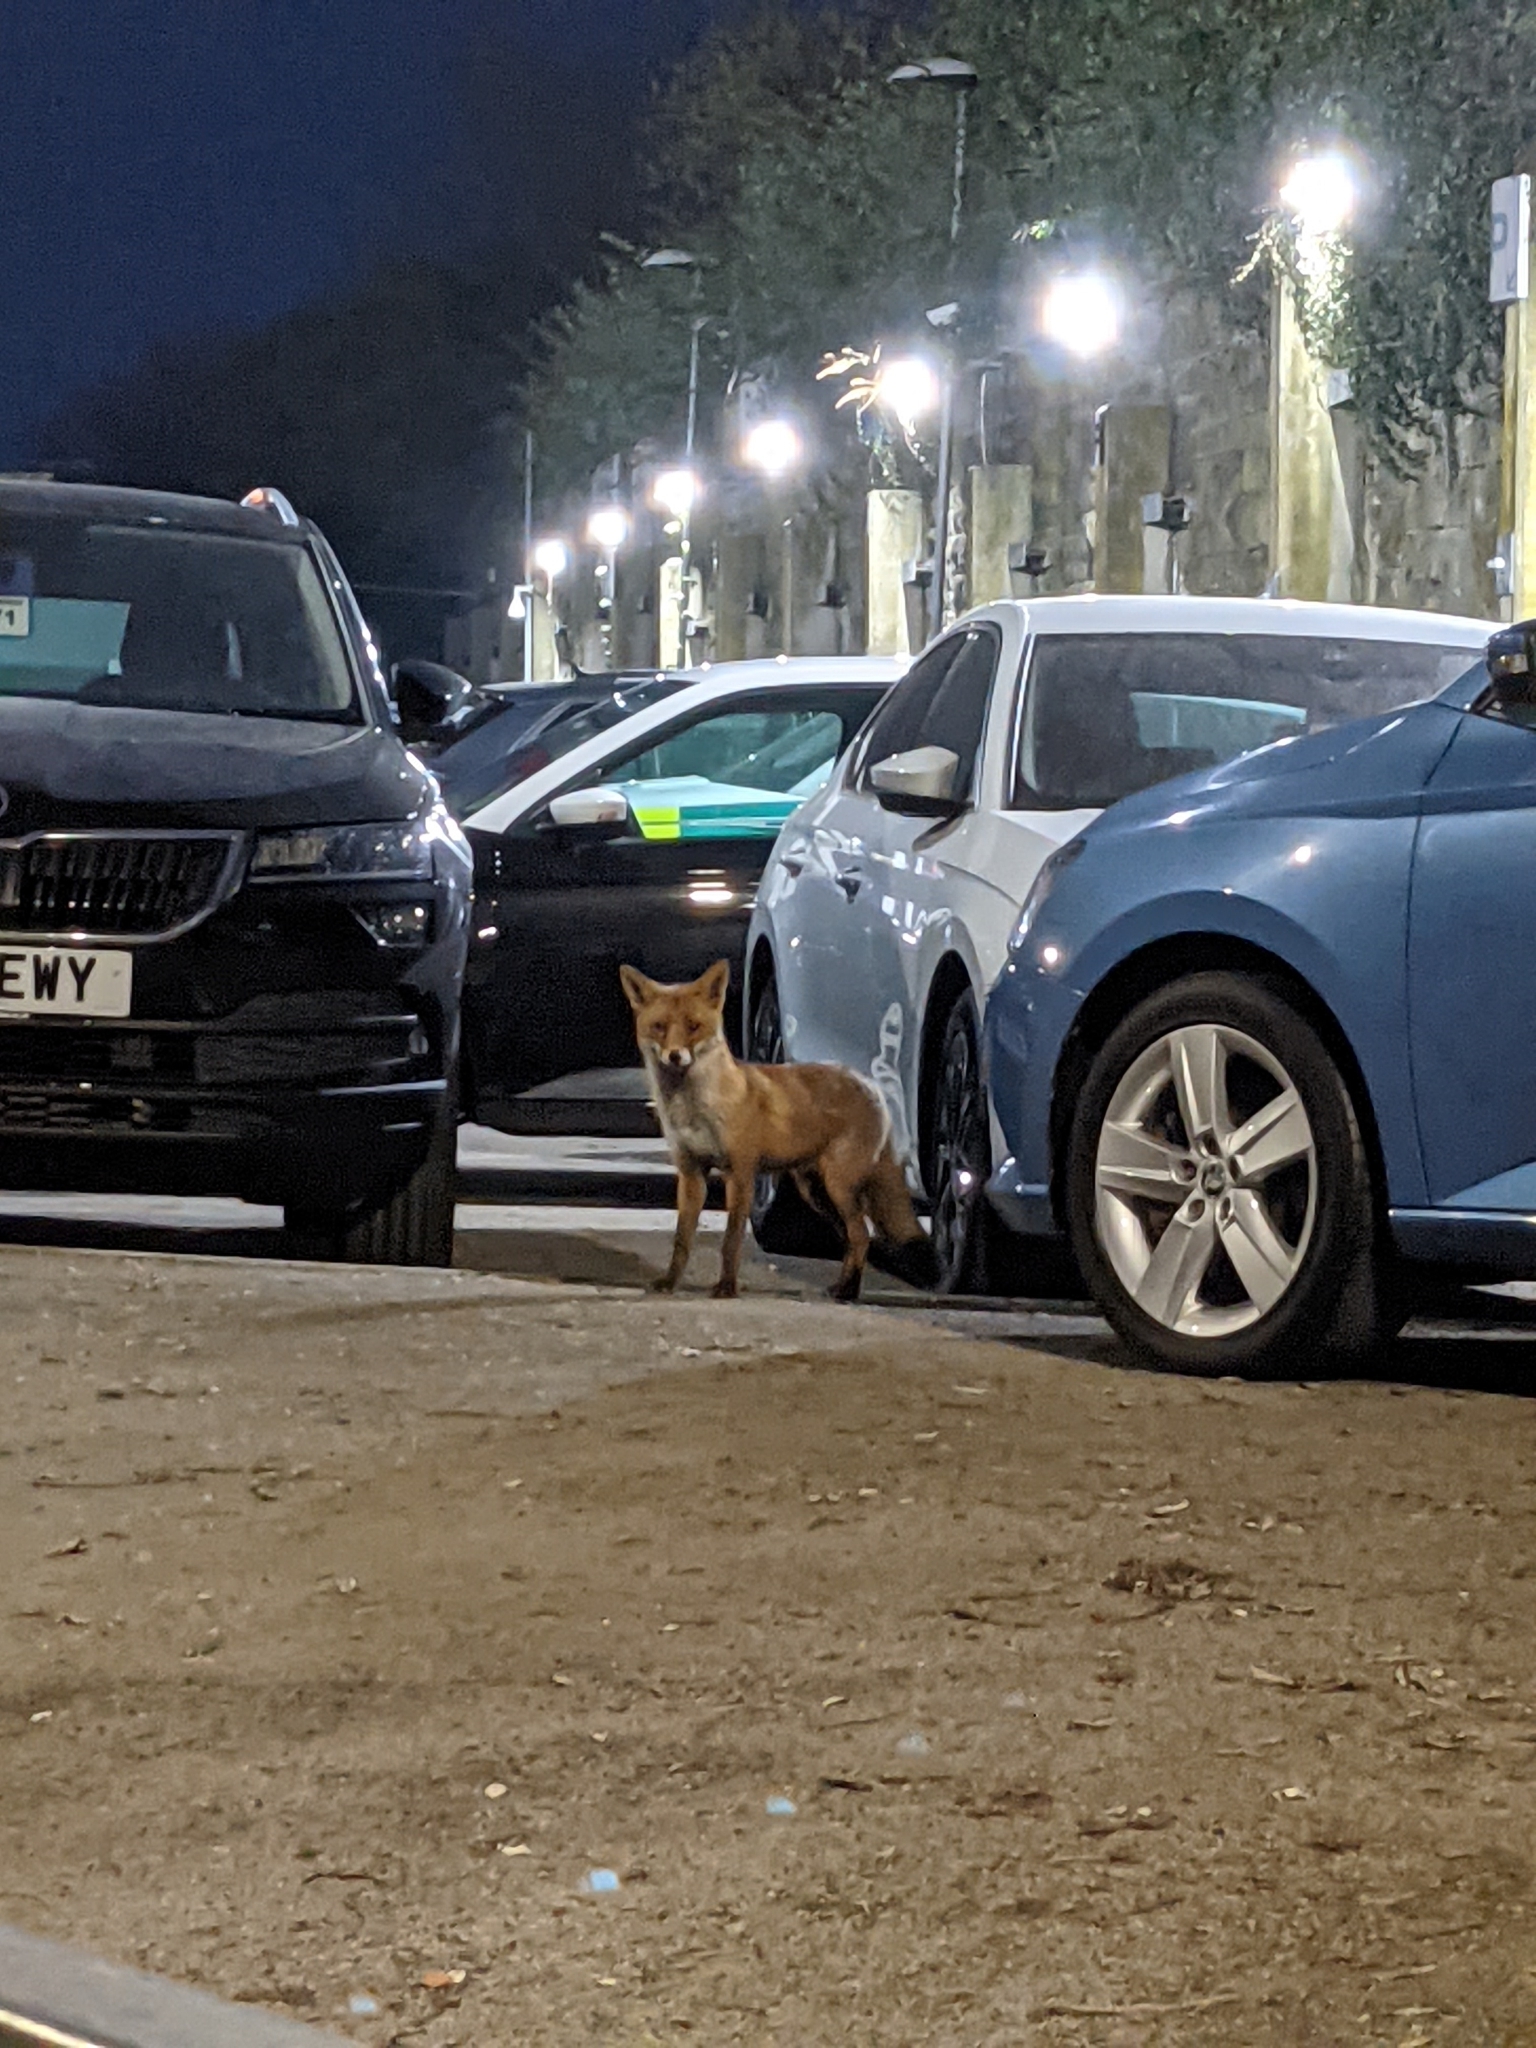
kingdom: Animalia
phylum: Chordata
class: Mammalia
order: Carnivora
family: Canidae
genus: Vulpes
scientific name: Vulpes vulpes
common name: Red fox
